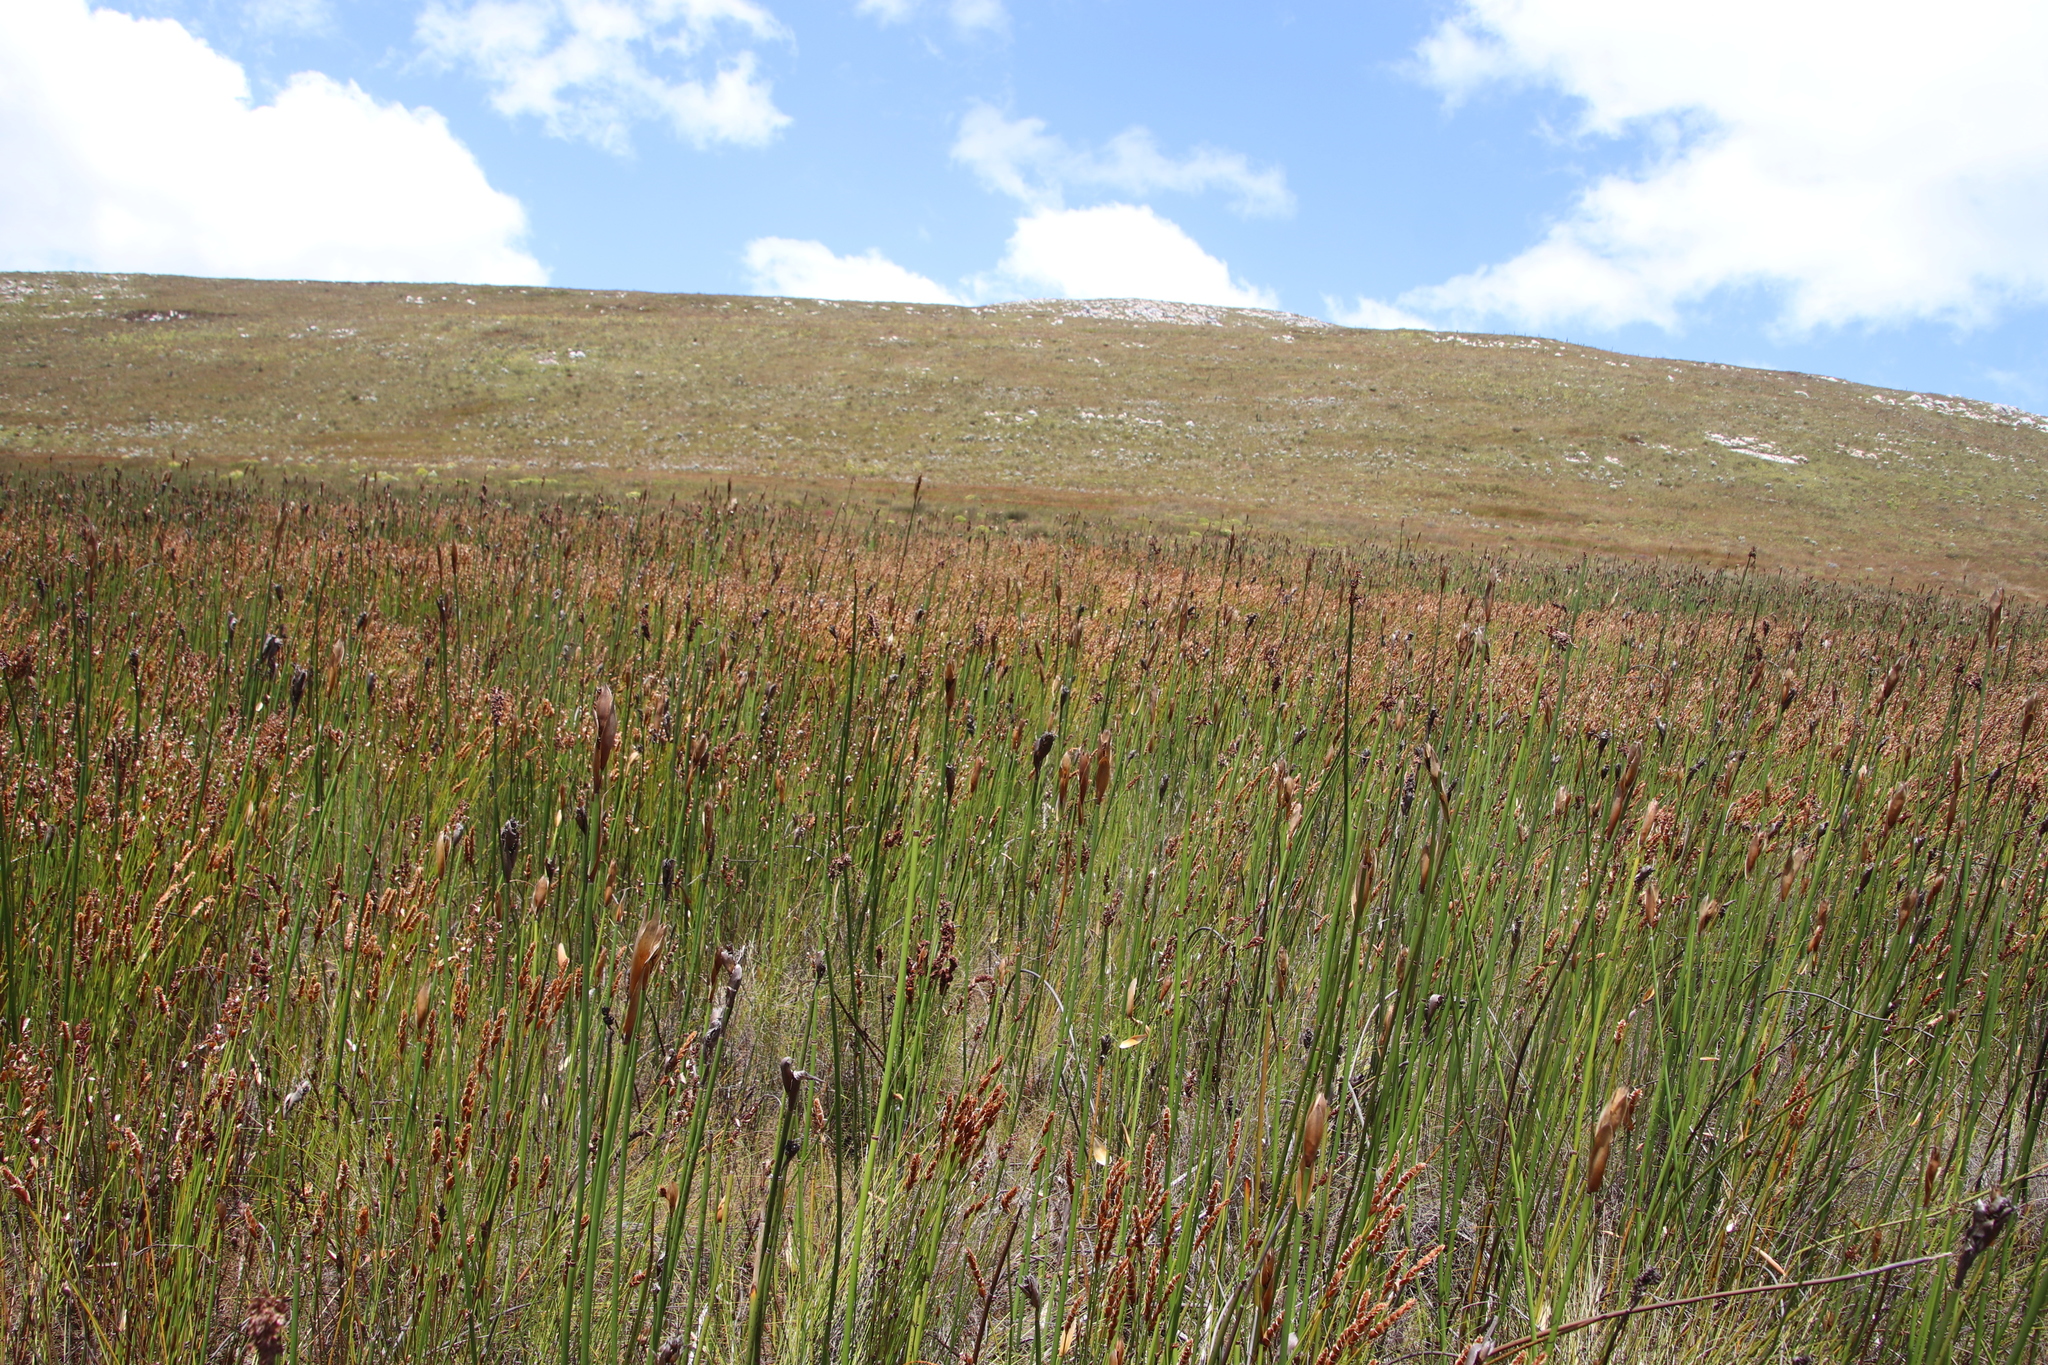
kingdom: Plantae
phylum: Tracheophyta
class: Liliopsida
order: Poales
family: Restionaceae
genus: Elegia
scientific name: Elegia mucronata
